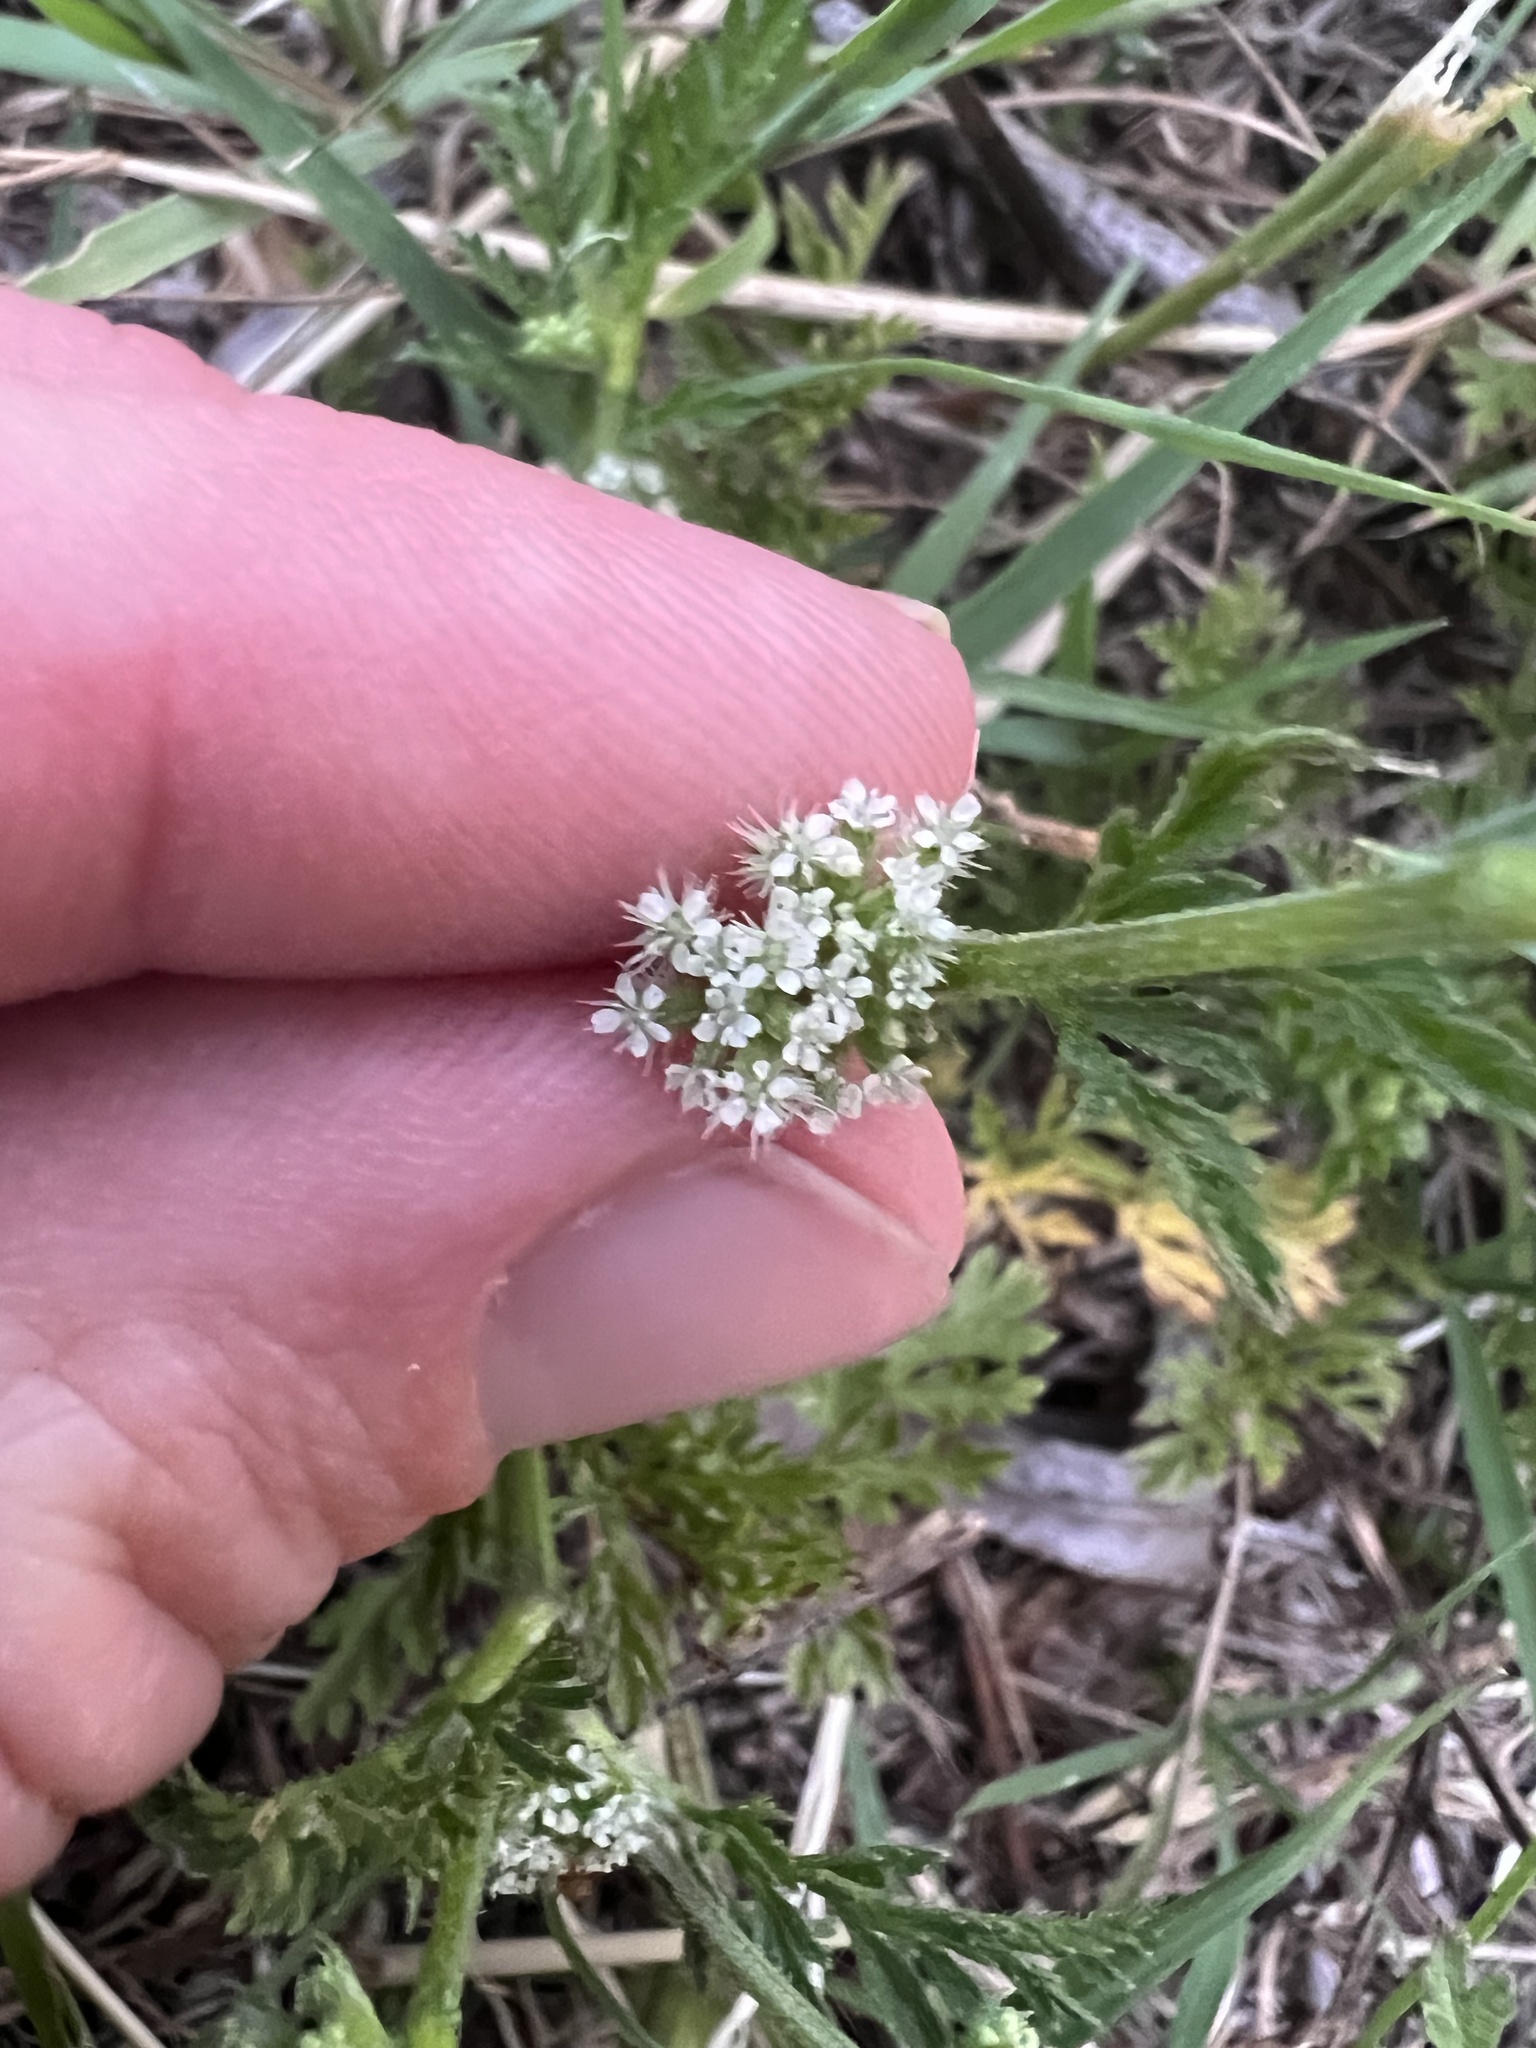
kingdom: Plantae
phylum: Tracheophyta
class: Magnoliopsida
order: Apiales
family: Apiaceae
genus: Torilis
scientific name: Torilis nodosa
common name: Knotted hedge-parsley
